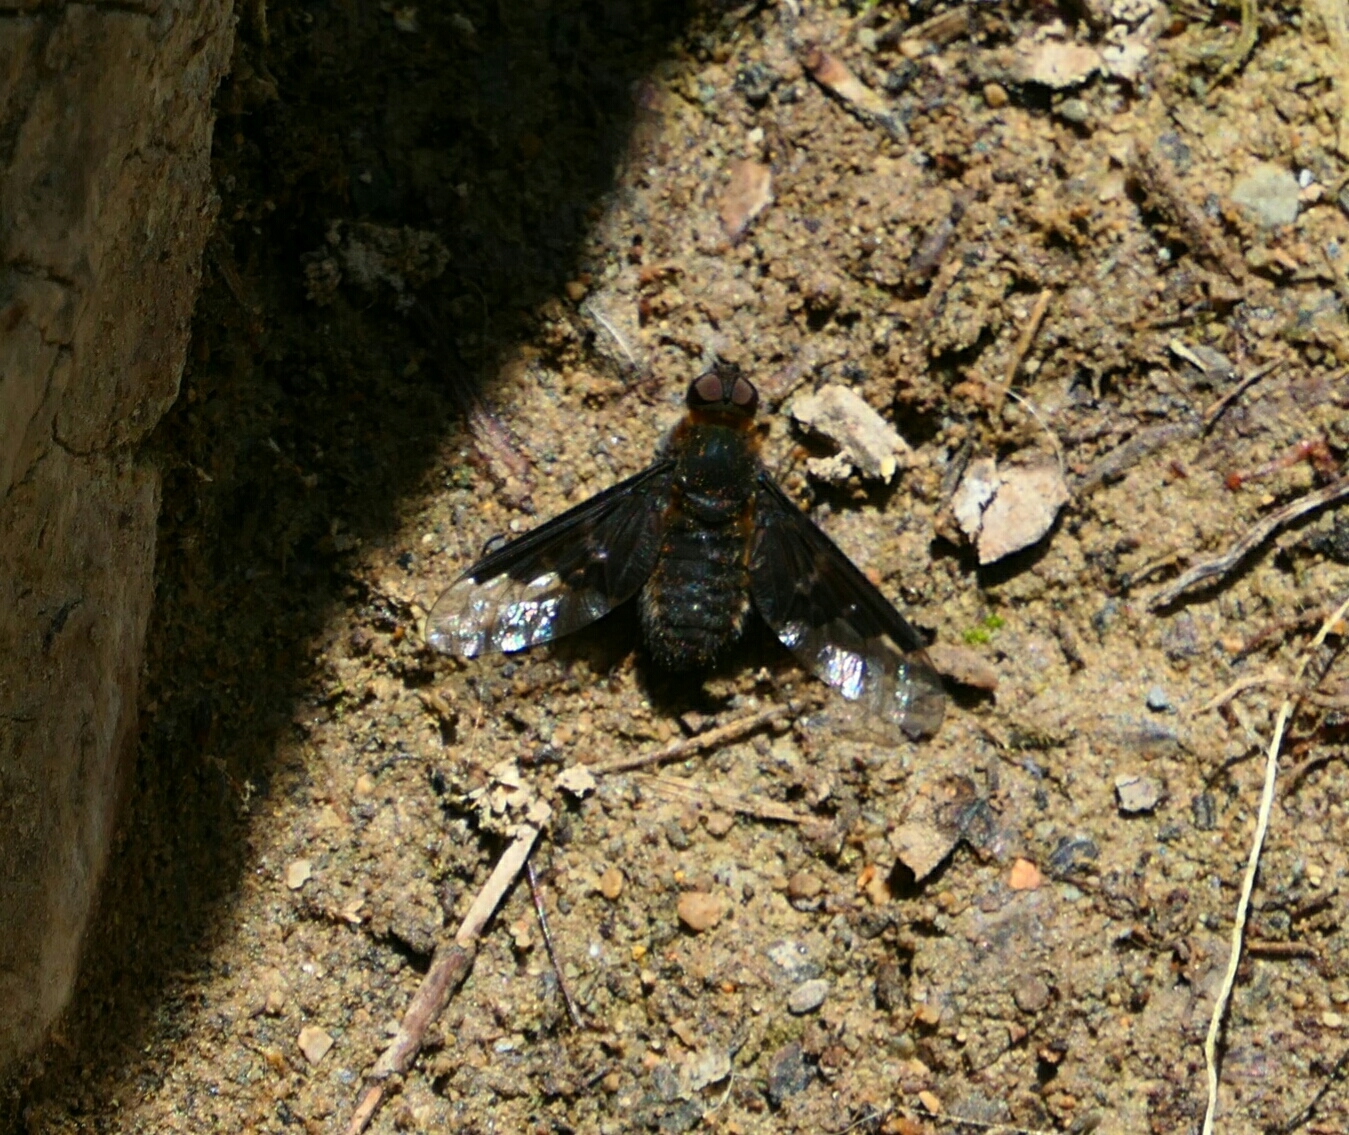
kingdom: Animalia
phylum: Arthropoda
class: Insecta
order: Diptera
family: Bombyliidae
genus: Hemipenthes
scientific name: Hemipenthes morio
